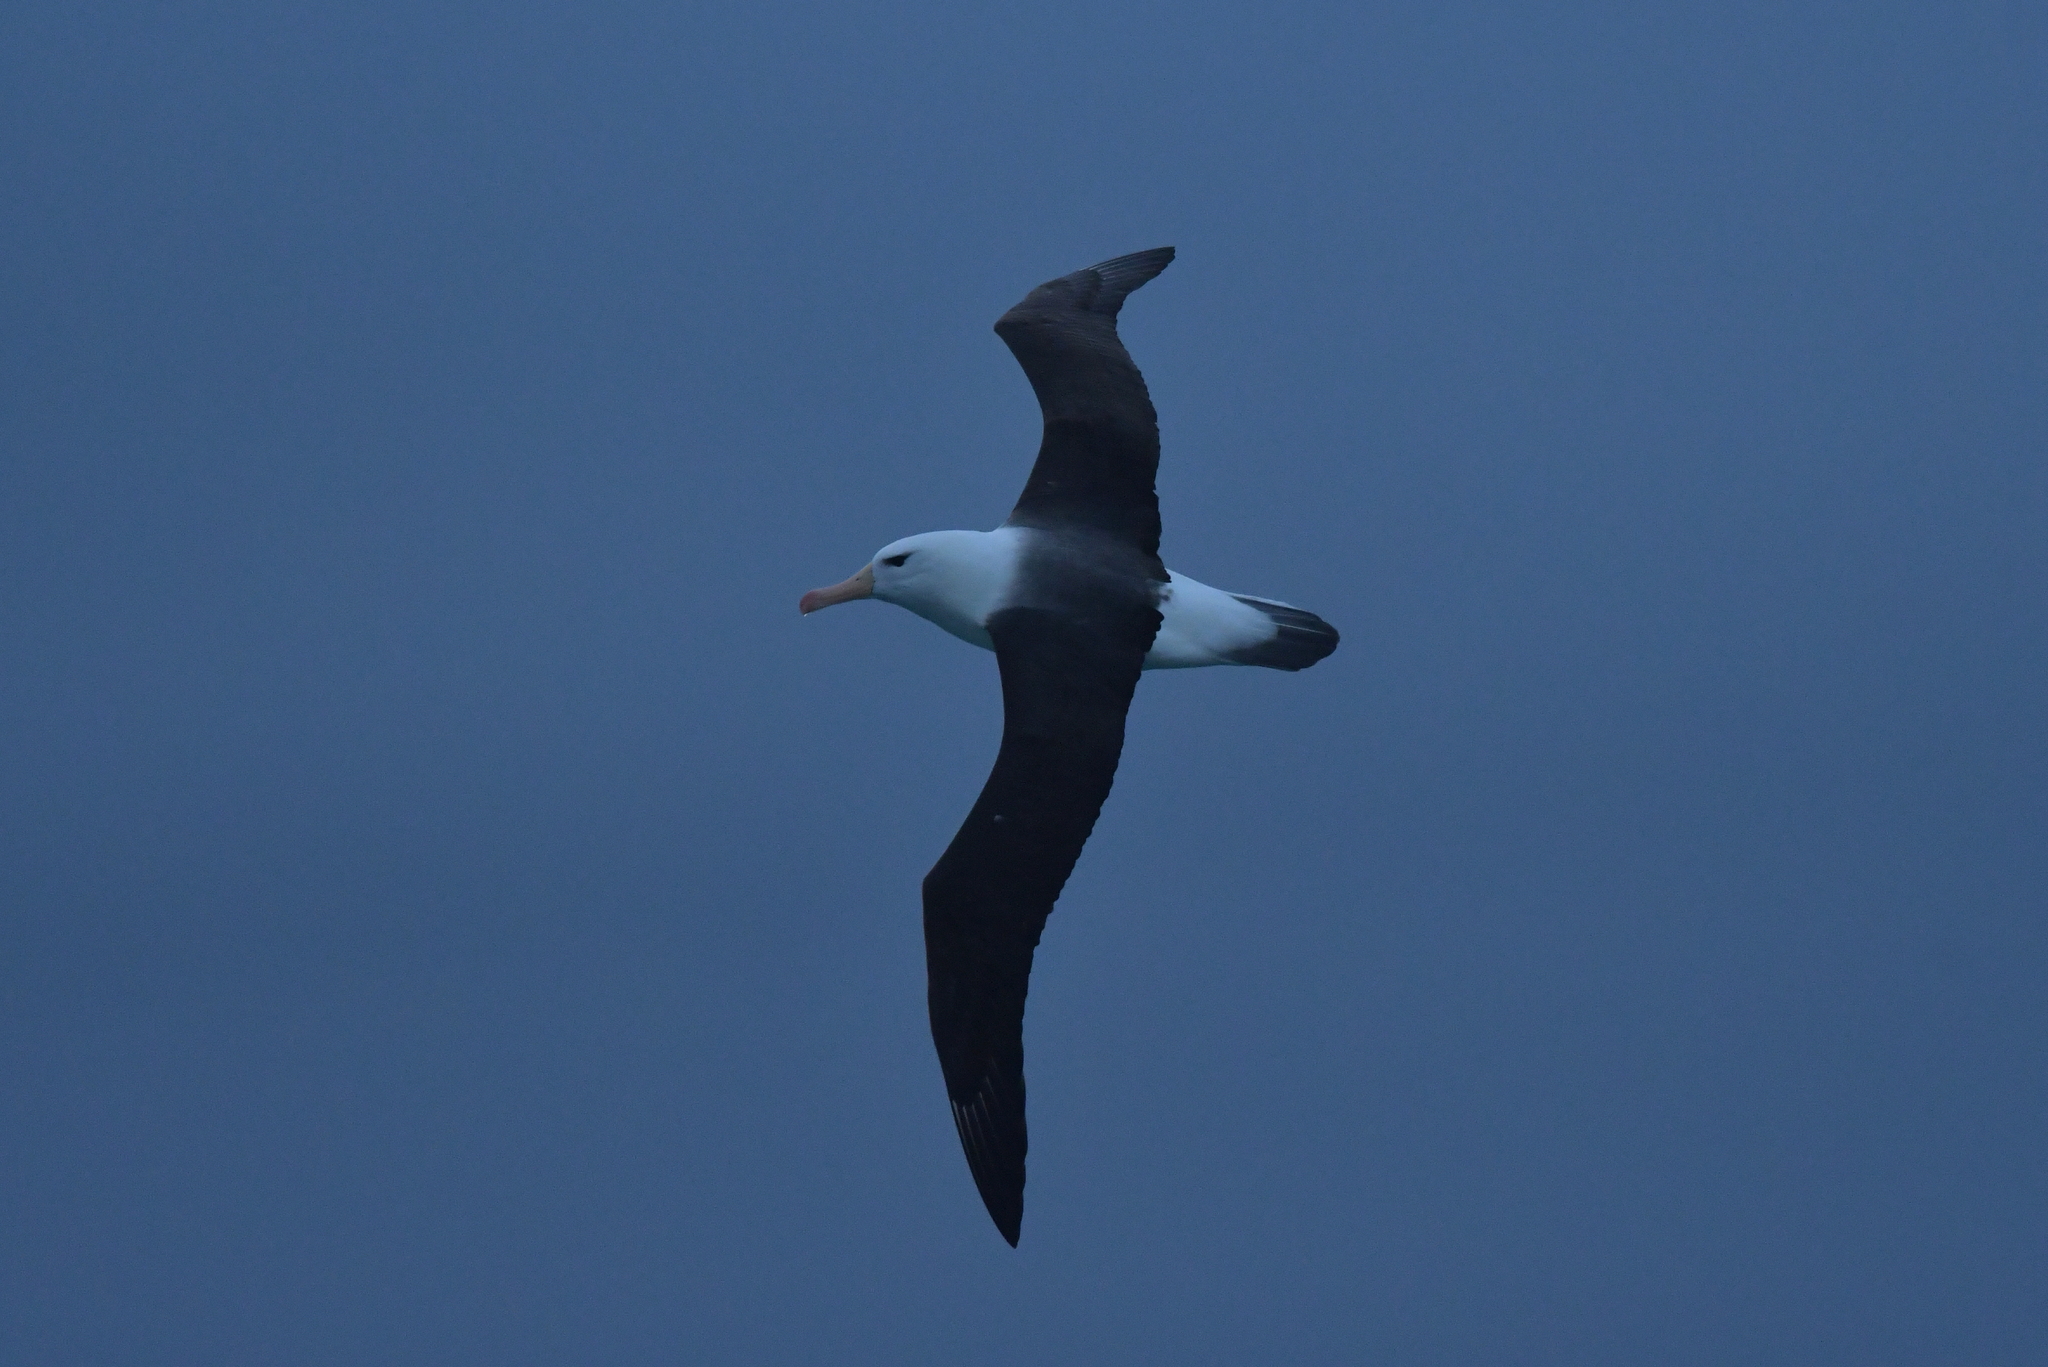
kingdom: Animalia
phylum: Chordata
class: Aves
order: Procellariiformes
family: Diomedeidae
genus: Thalassarche
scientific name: Thalassarche melanophris
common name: Black-browed albatross
